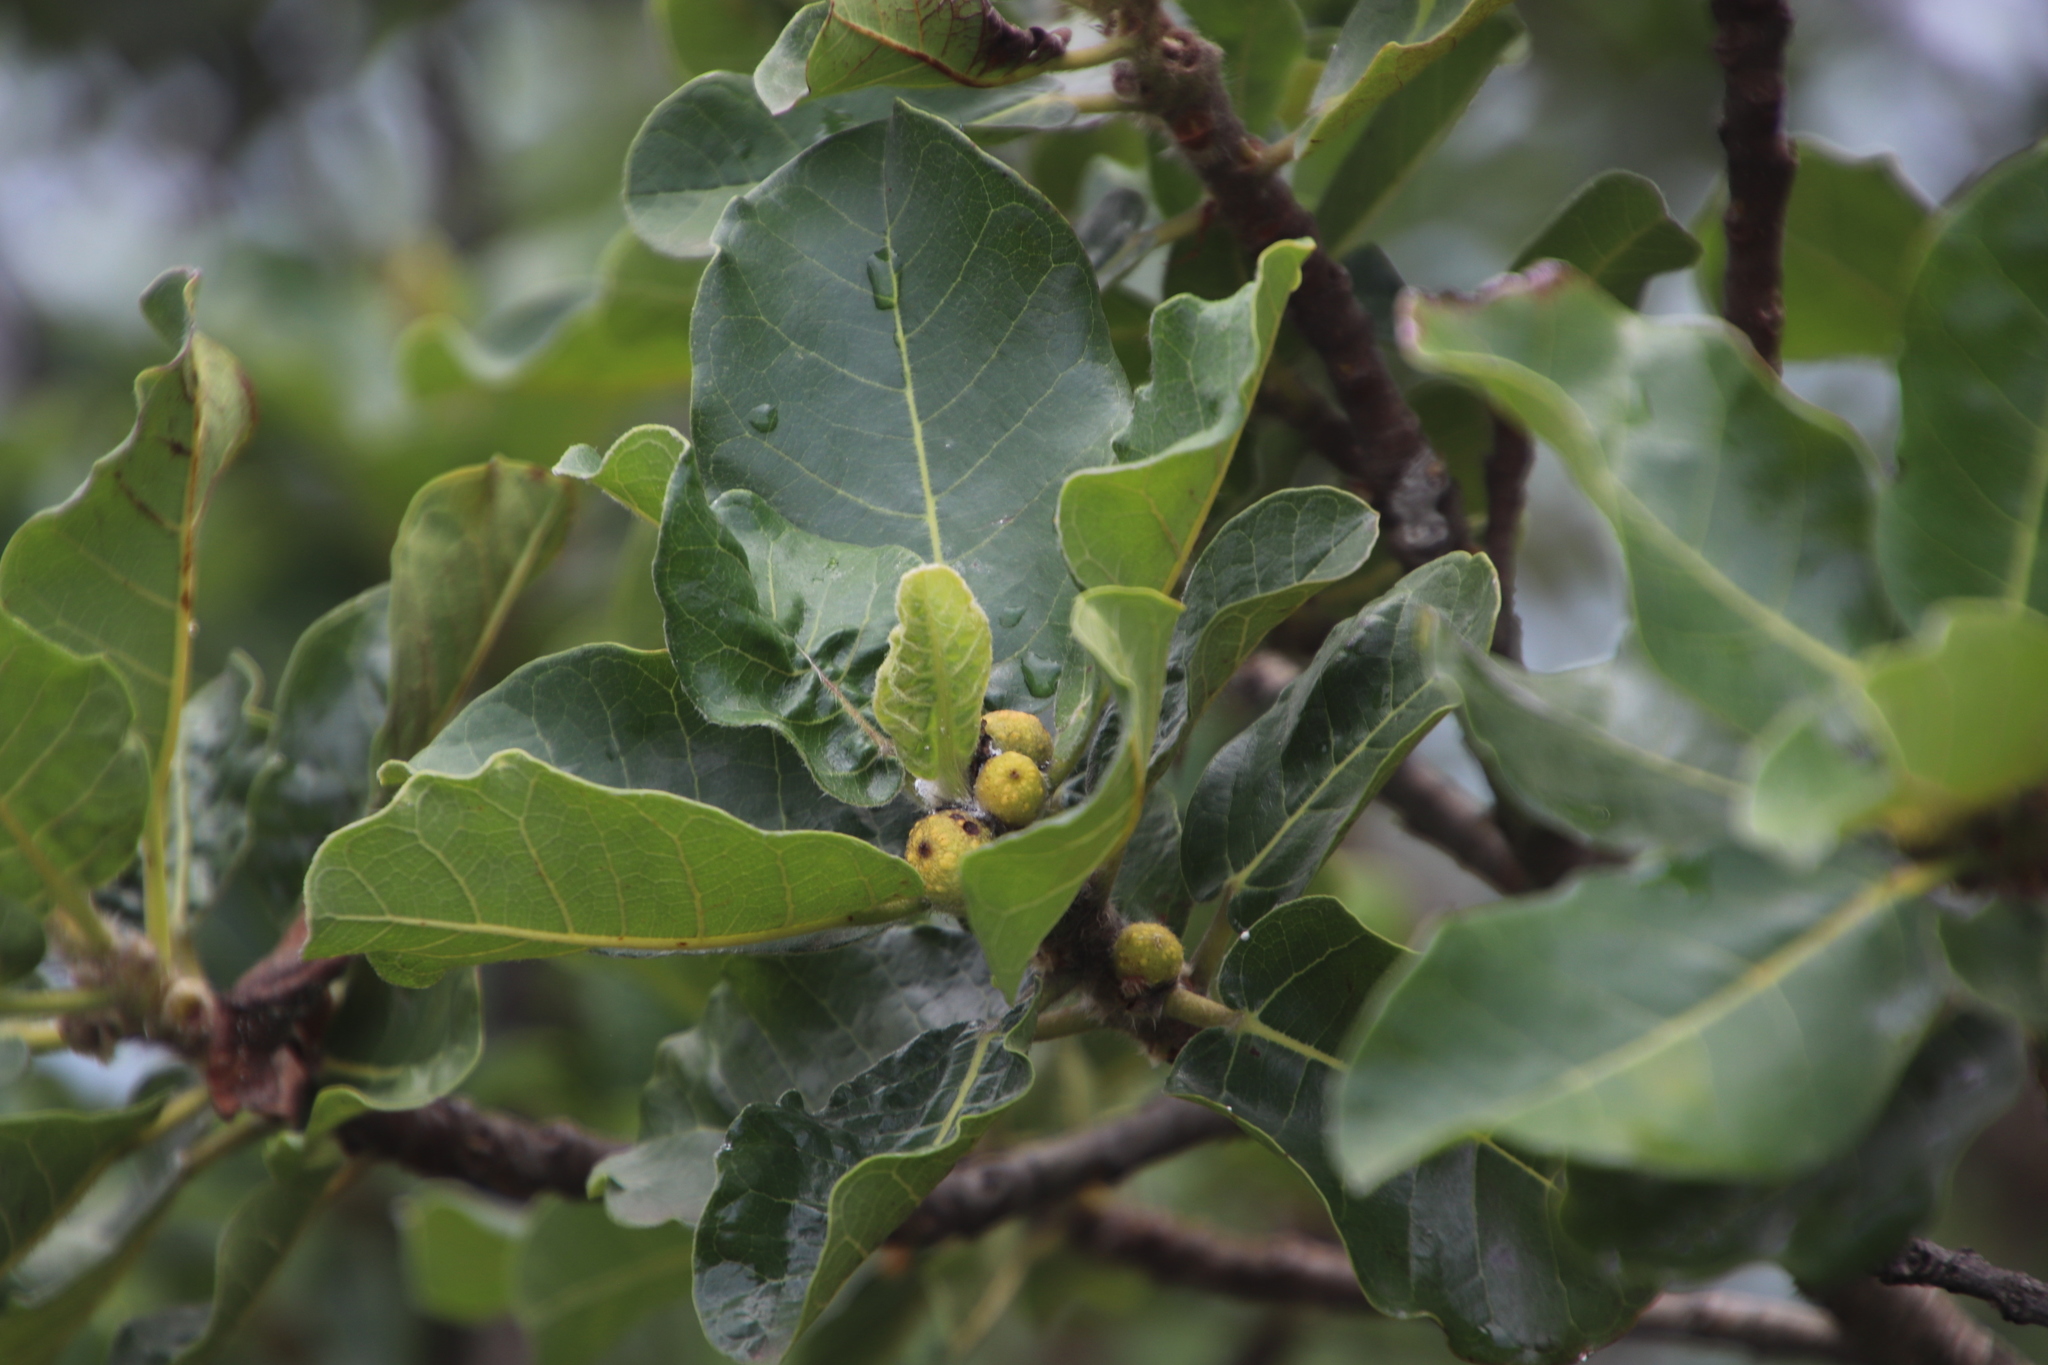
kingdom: Plantae
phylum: Tracheophyta
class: Magnoliopsida
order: Rosales
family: Moraceae
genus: Ficus
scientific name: Ficus glumosa
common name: Hairy rock fig
